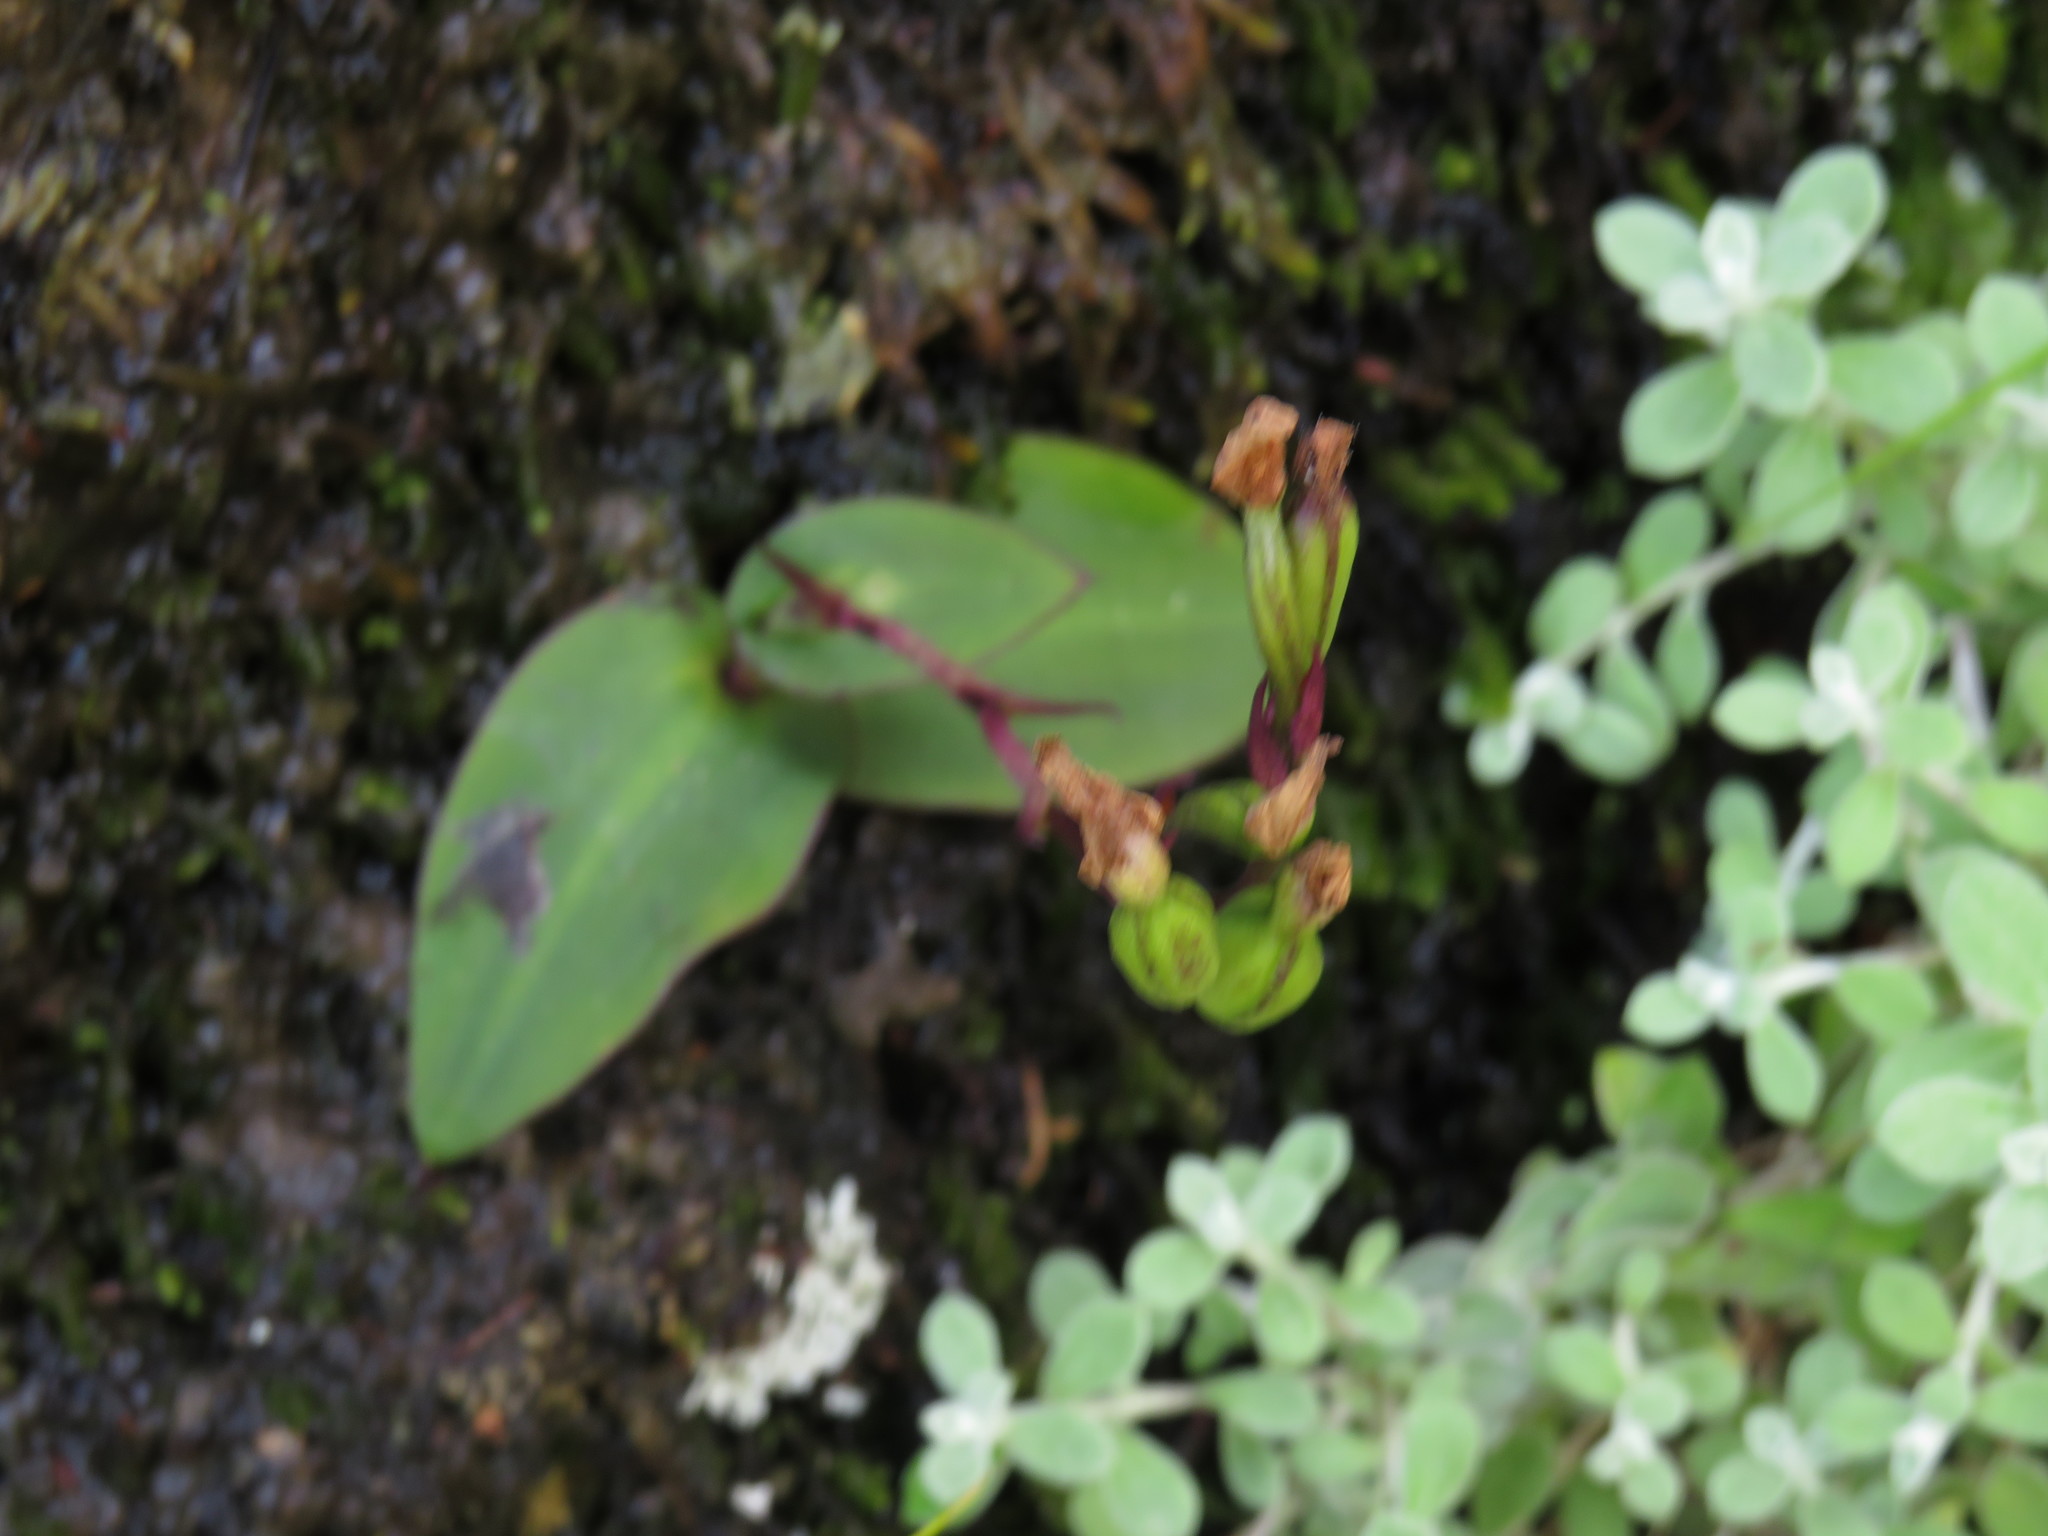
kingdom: Plantae
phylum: Tracheophyta
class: Liliopsida
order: Asparagales
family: Orchidaceae
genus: Disa
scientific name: Disa rosea
